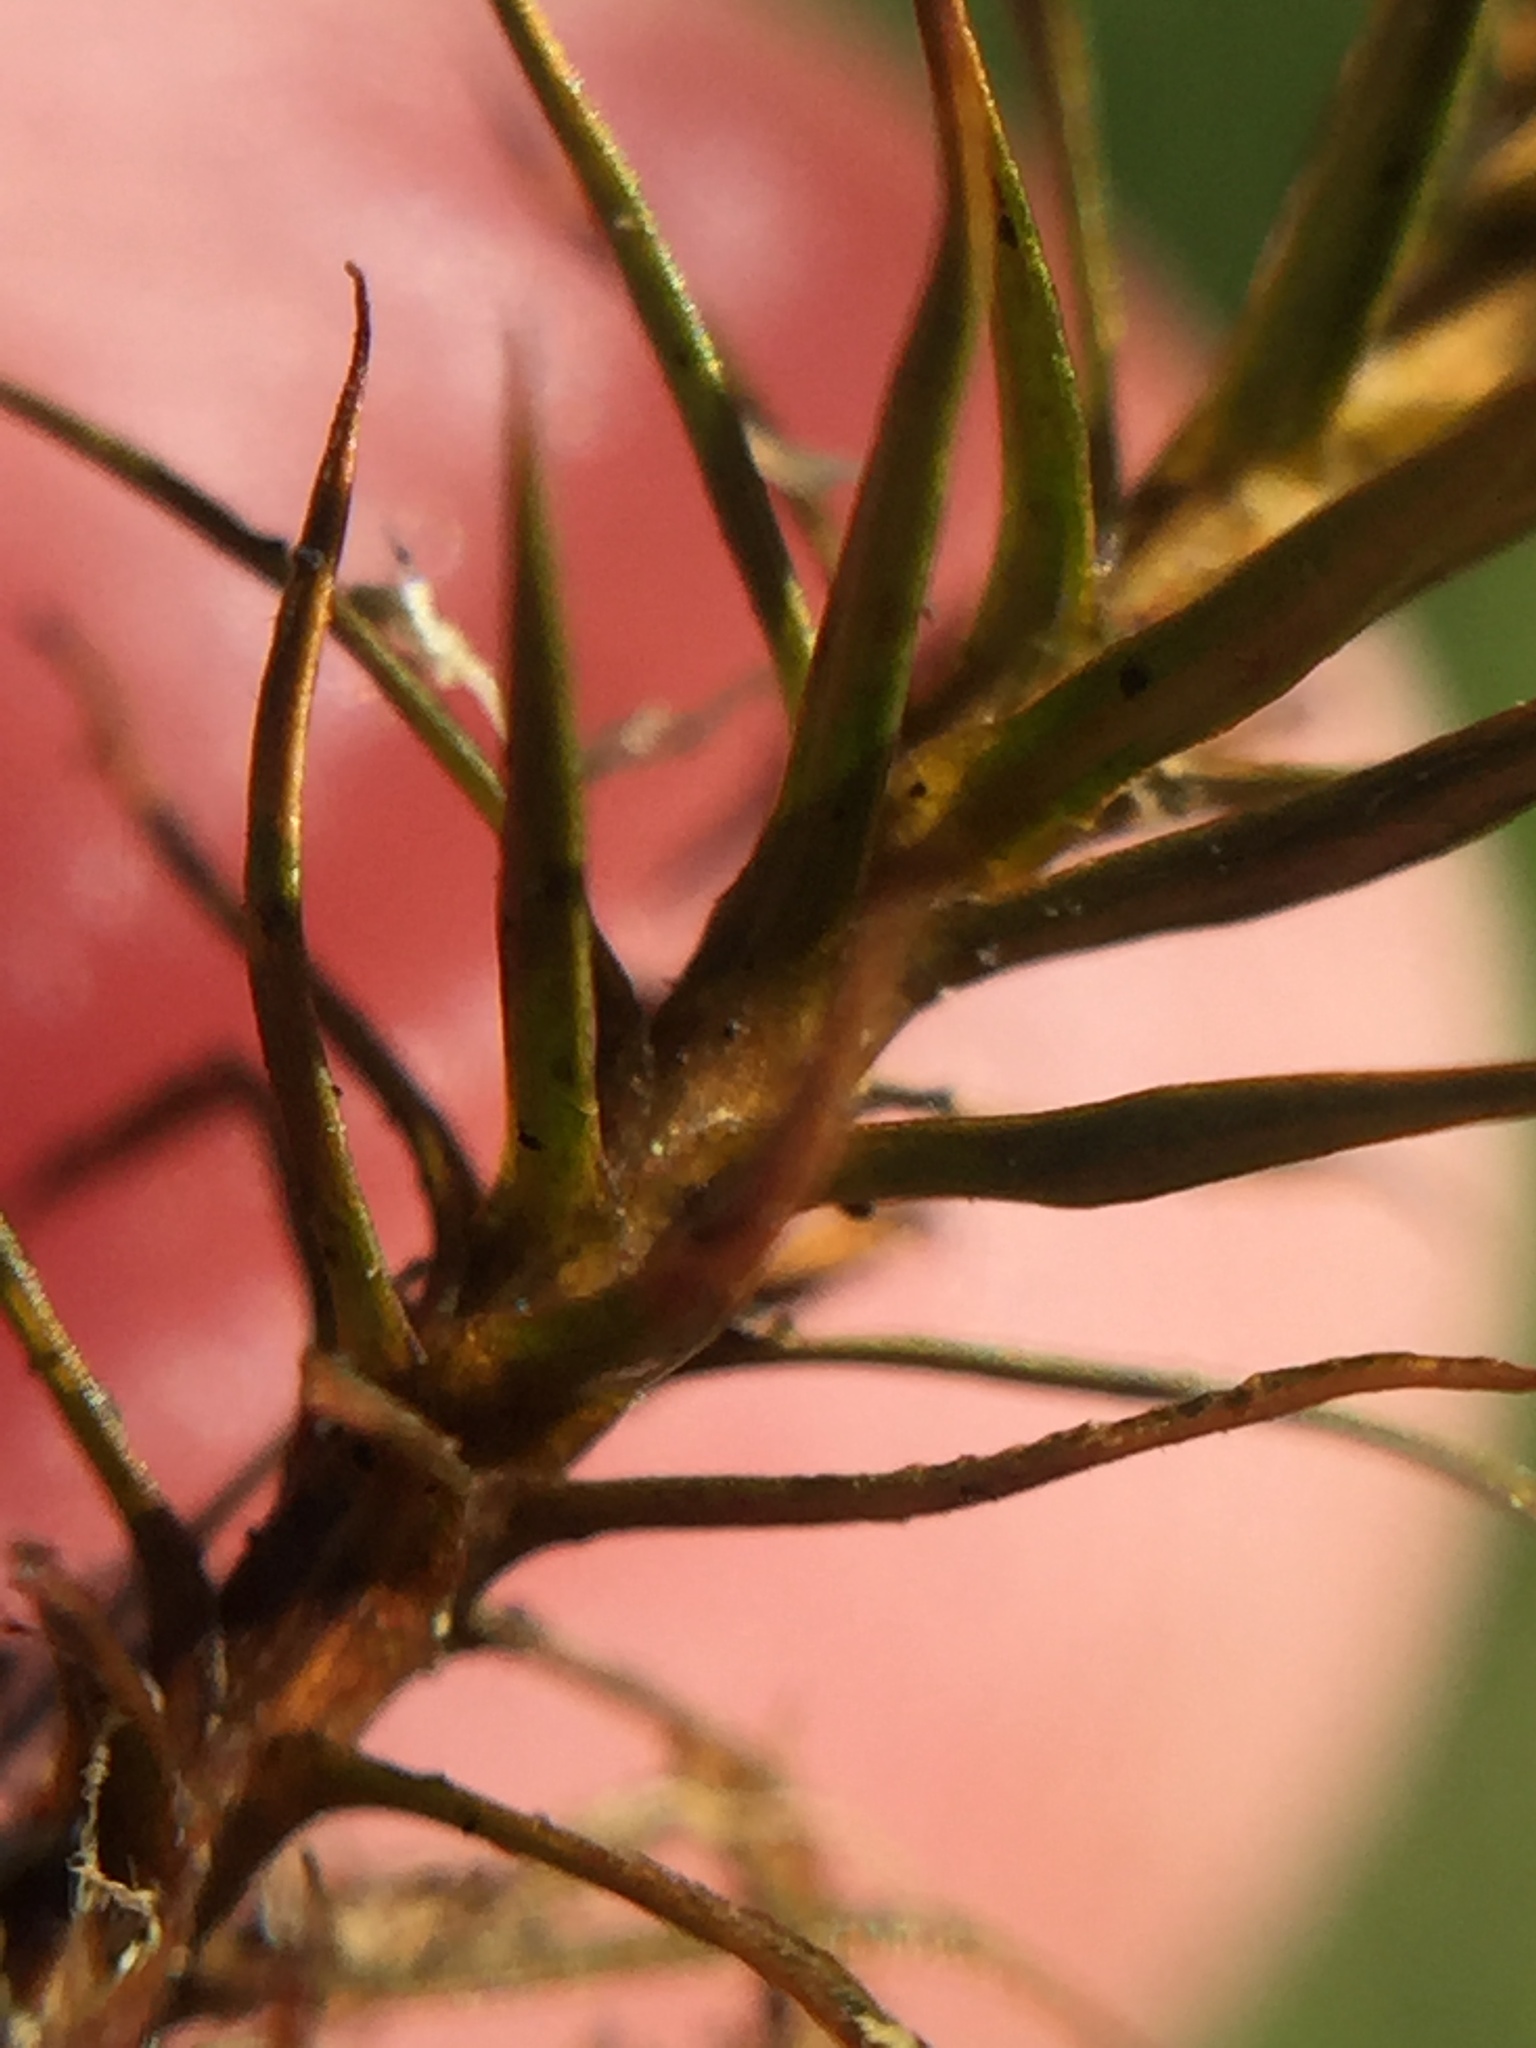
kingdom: Plantae
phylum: Bryophyta
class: Polytrichopsida
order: Polytrichales
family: Polytrichaceae
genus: Polytrichum
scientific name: Polytrichum juniperinum
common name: Juniper haircap moss
